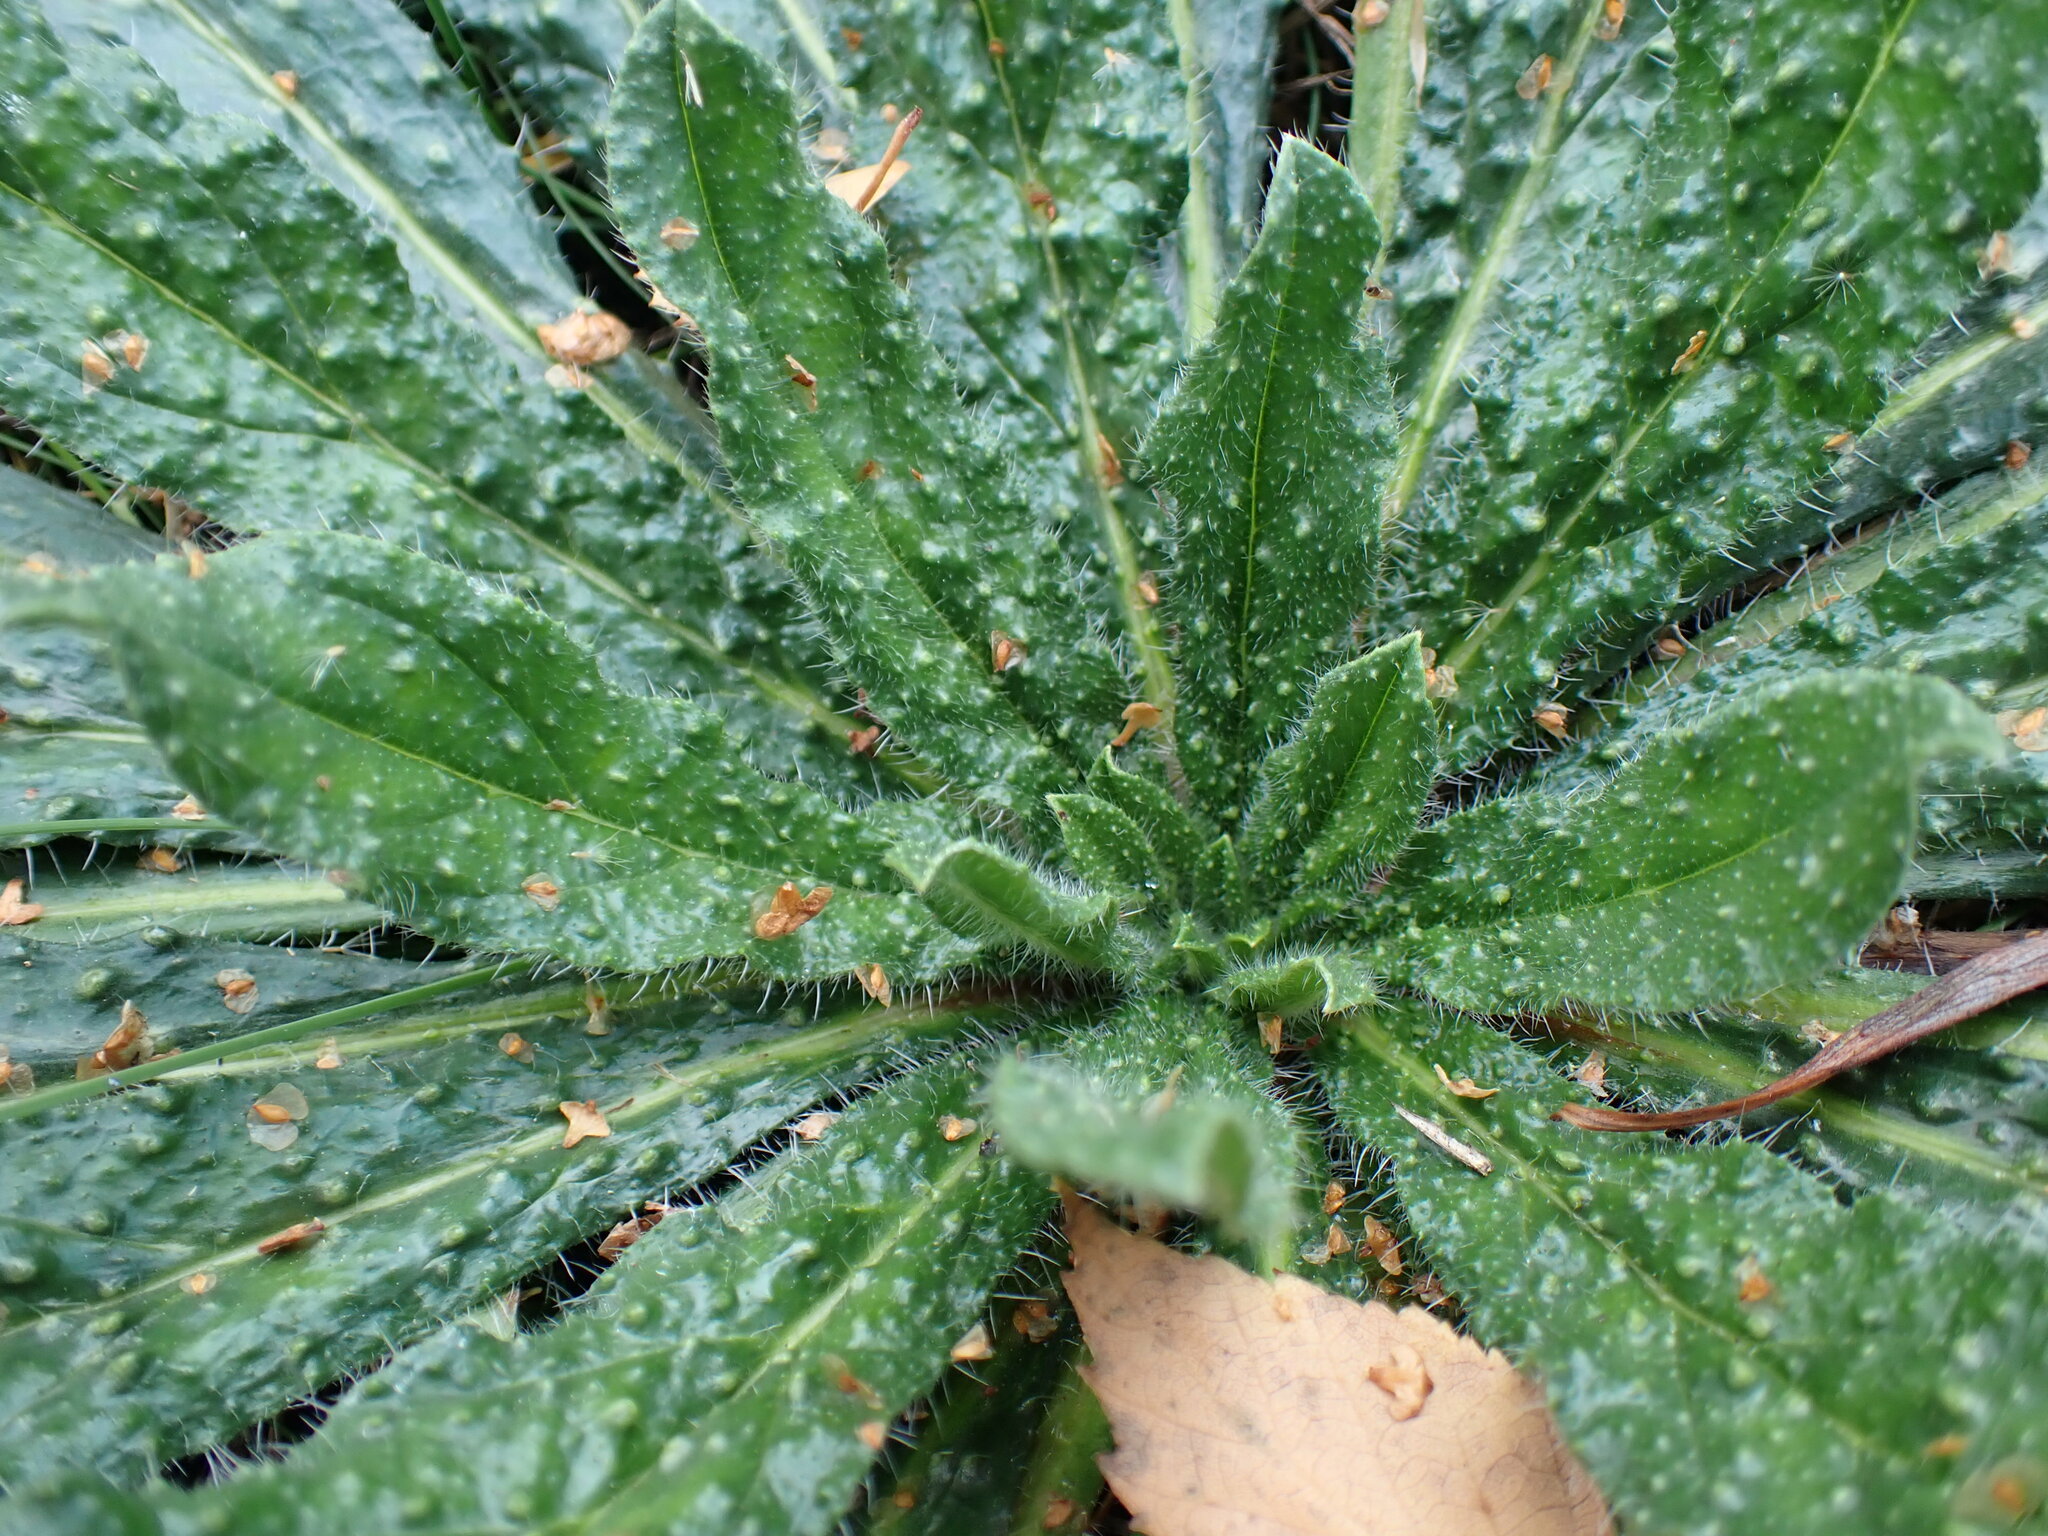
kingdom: Plantae
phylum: Tracheophyta
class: Magnoliopsida
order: Boraginales
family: Boraginaceae
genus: Echium
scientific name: Echium vulgare
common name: Common viper's bugloss
